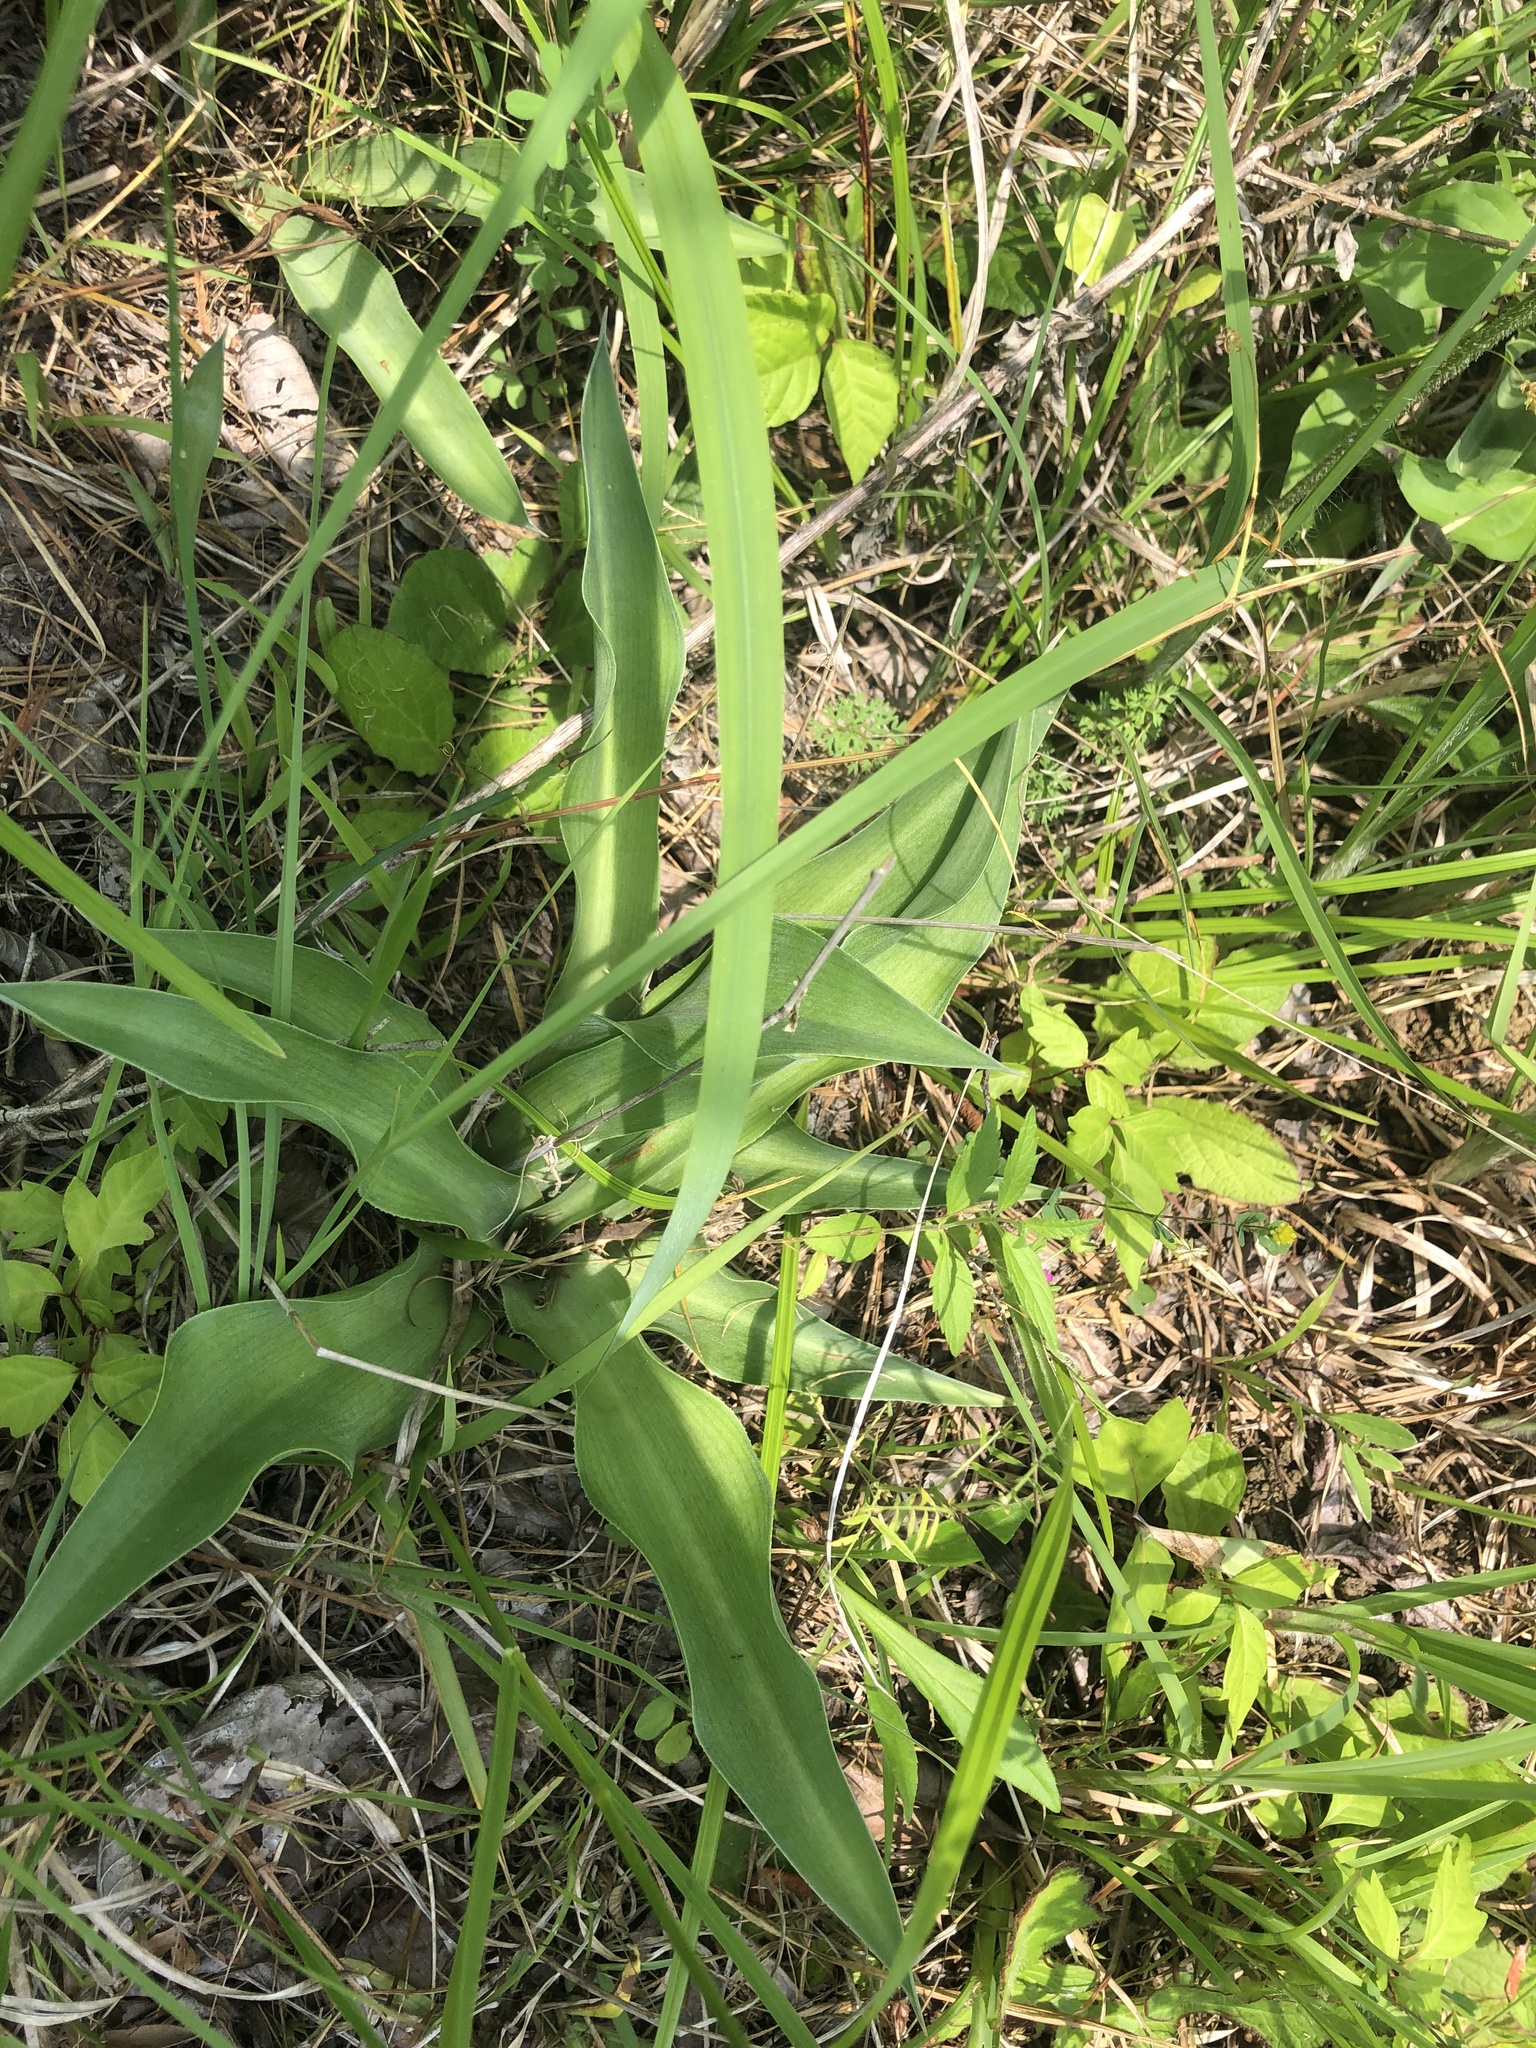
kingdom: Plantae
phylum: Tracheophyta
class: Liliopsida
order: Asparagales
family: Asparagaceae
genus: Agave
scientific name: Agave virginica
